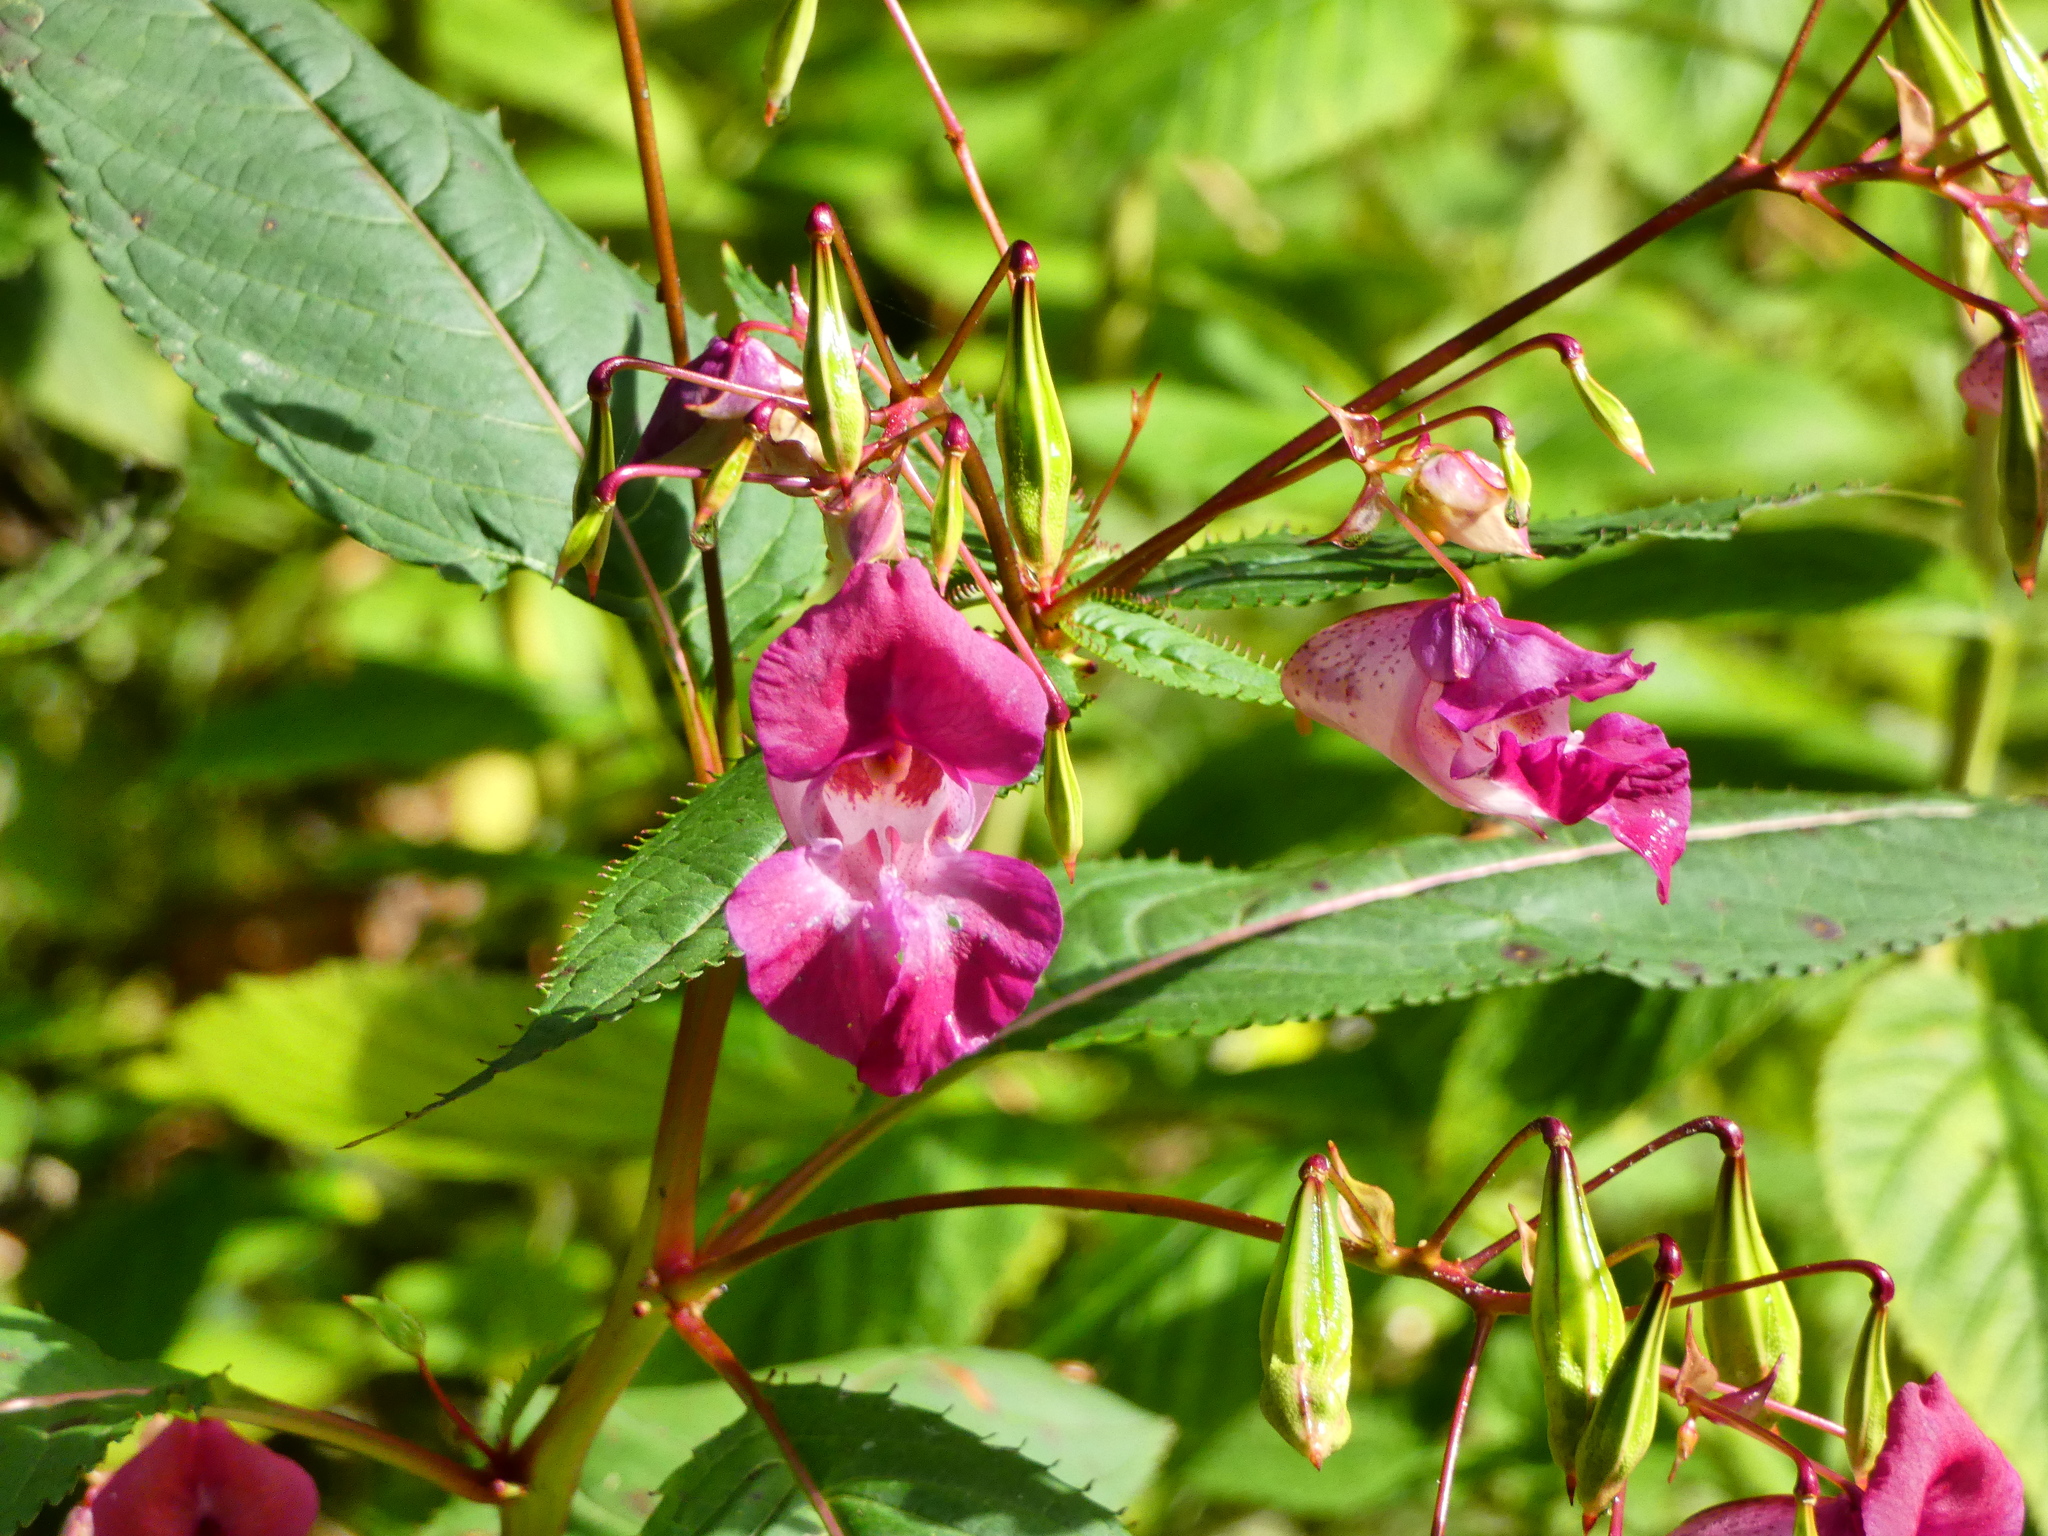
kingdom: Plantae
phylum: Tracheophyta
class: Magnoliopsida
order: Ericales
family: Balsaminaceae
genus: Impatiens
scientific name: Impatiens glandulifera
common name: Himalayan balsam
